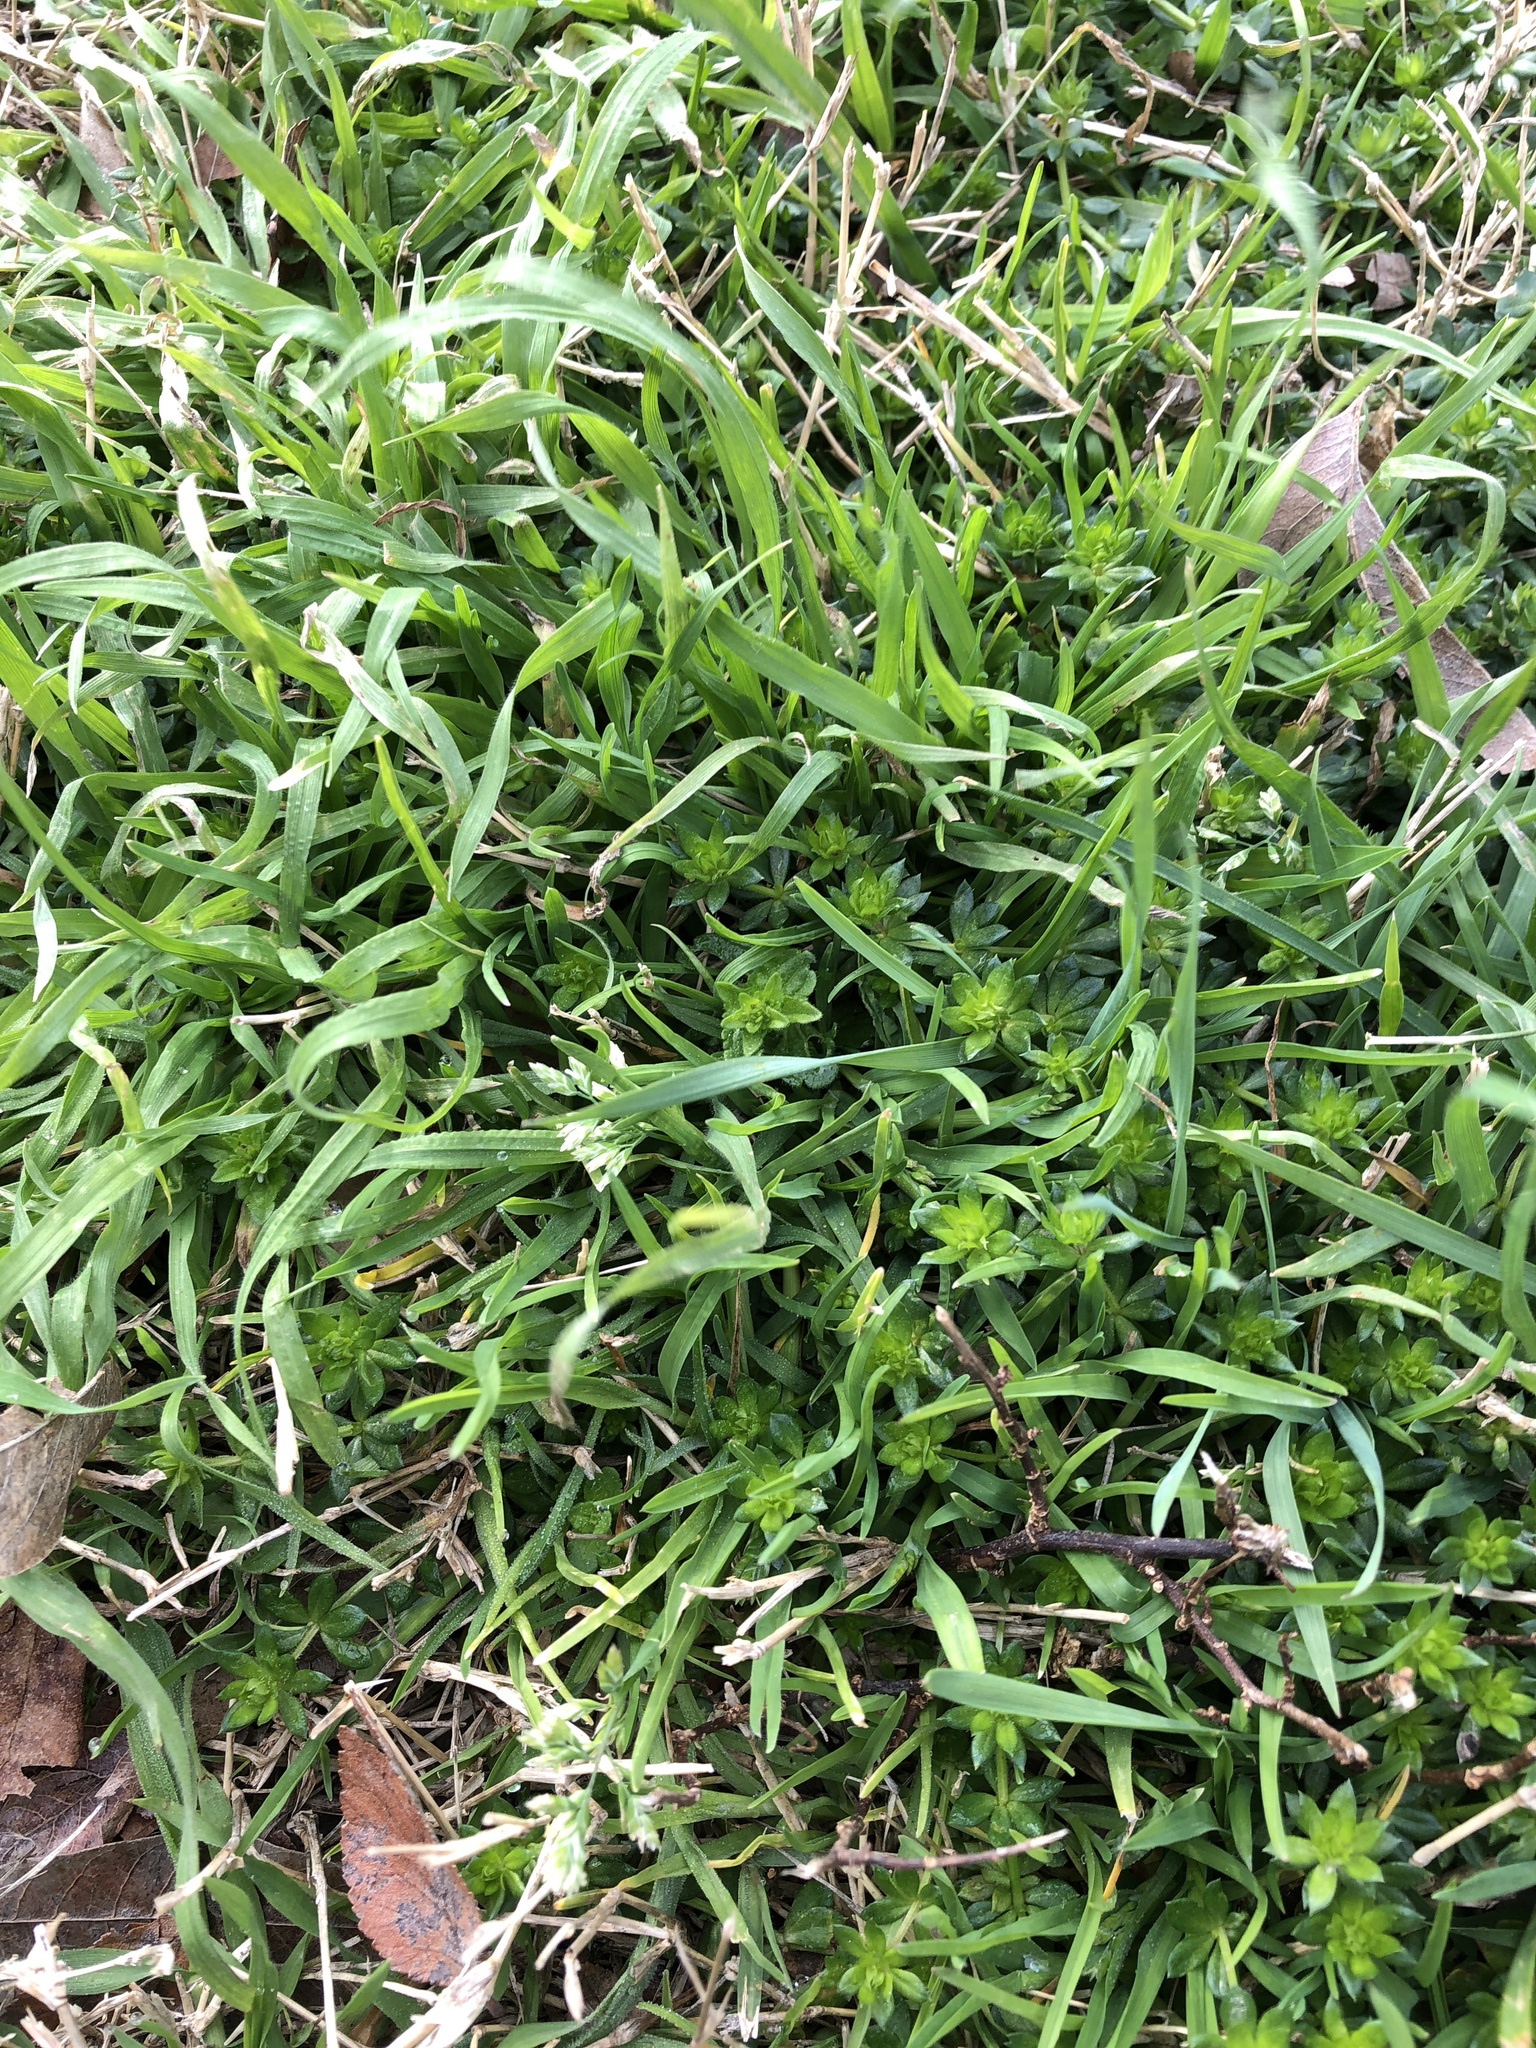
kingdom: Plantae
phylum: Tracheophyta
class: Liliopsida
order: Poales
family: Poaceae
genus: Poa
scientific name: Poa annua
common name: Annual bluegrass
